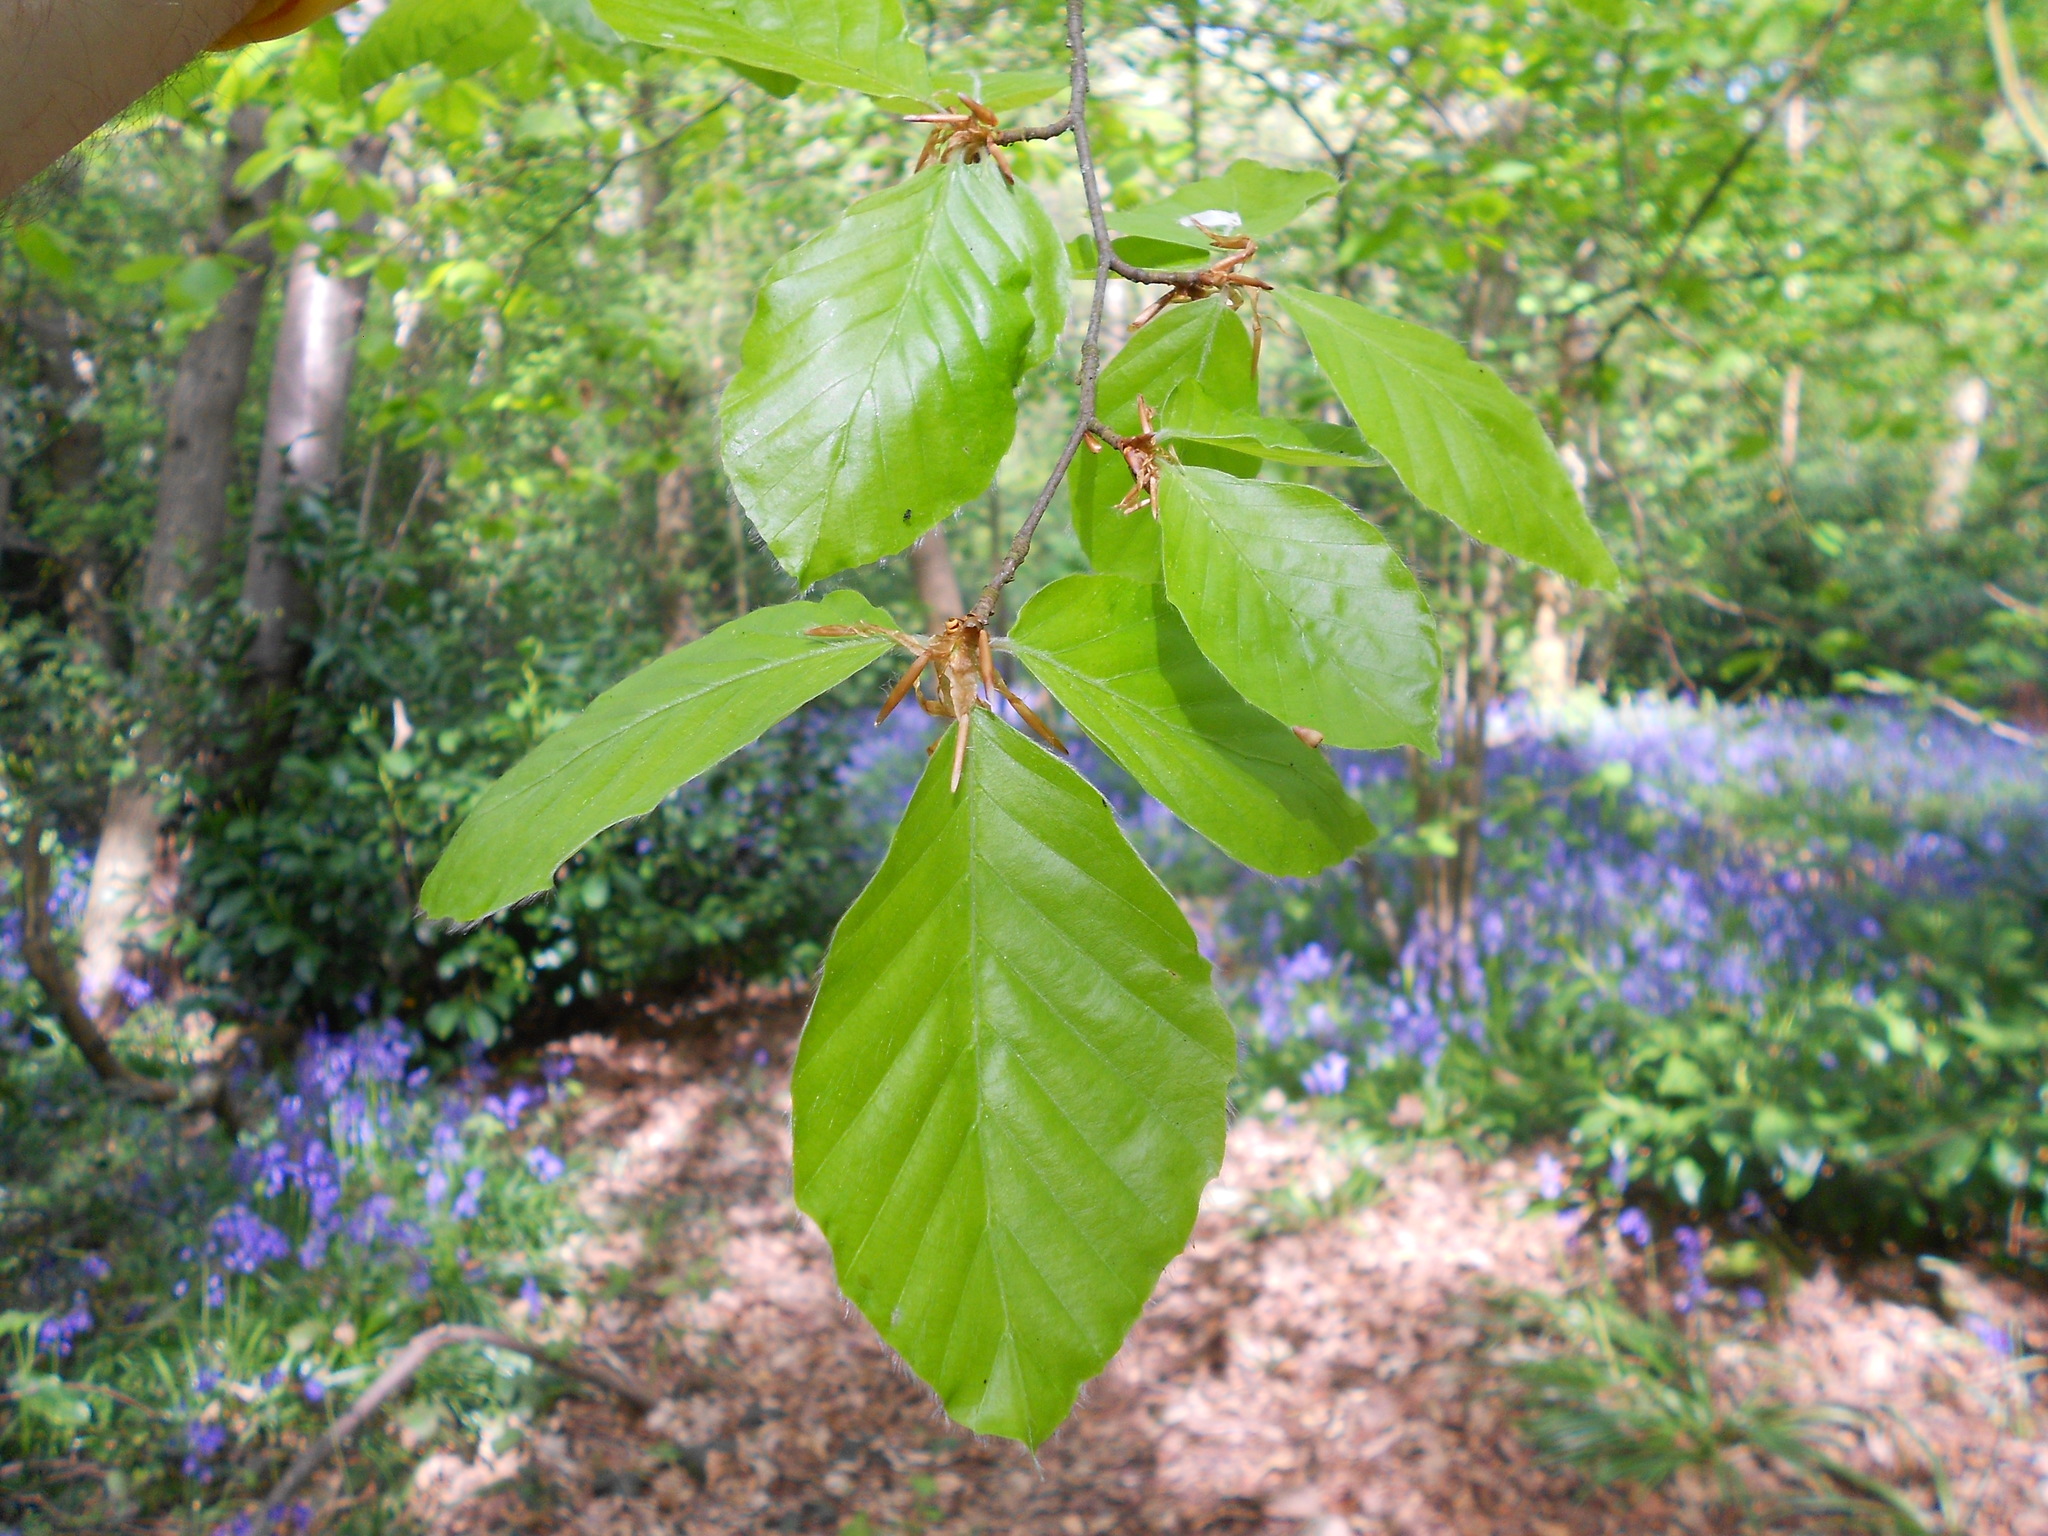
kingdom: Plantae
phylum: Tracheophyta
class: Magnoliopsida
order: Fagales
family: Fagaceae
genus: Fagus
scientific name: Fagus sylvatica
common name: Beech
